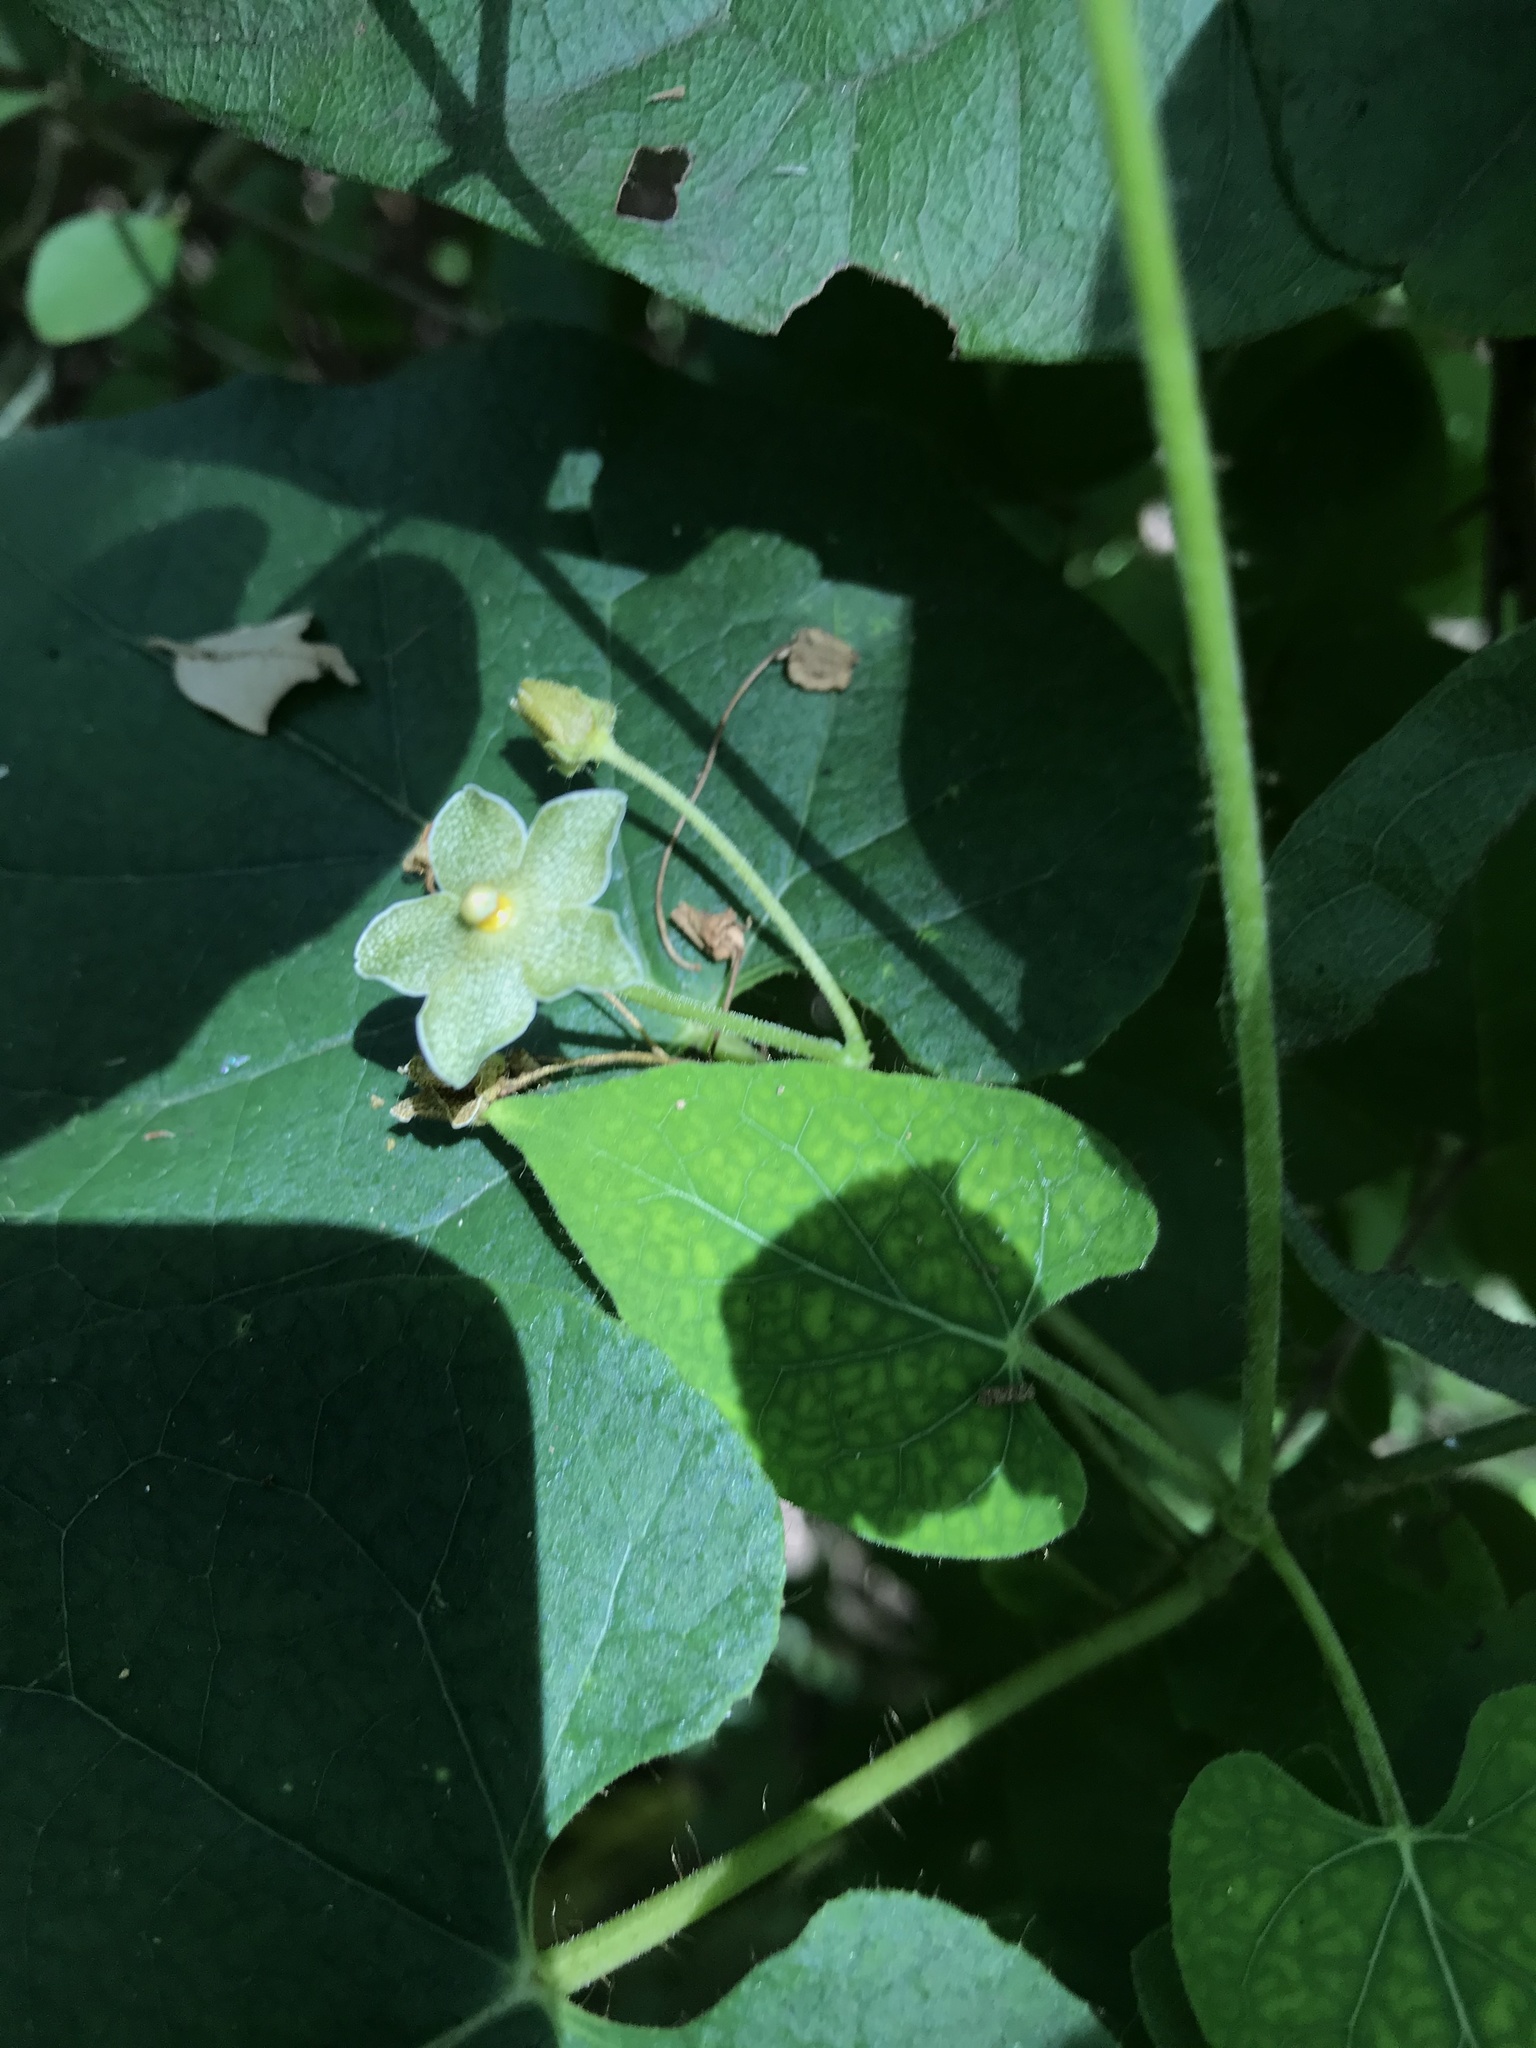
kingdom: Plantae
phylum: Tracheophyta
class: Magnoliopsida
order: Gentianales
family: Apocynaceae
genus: Dictyanthus
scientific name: Dictyanthus reticulatus
